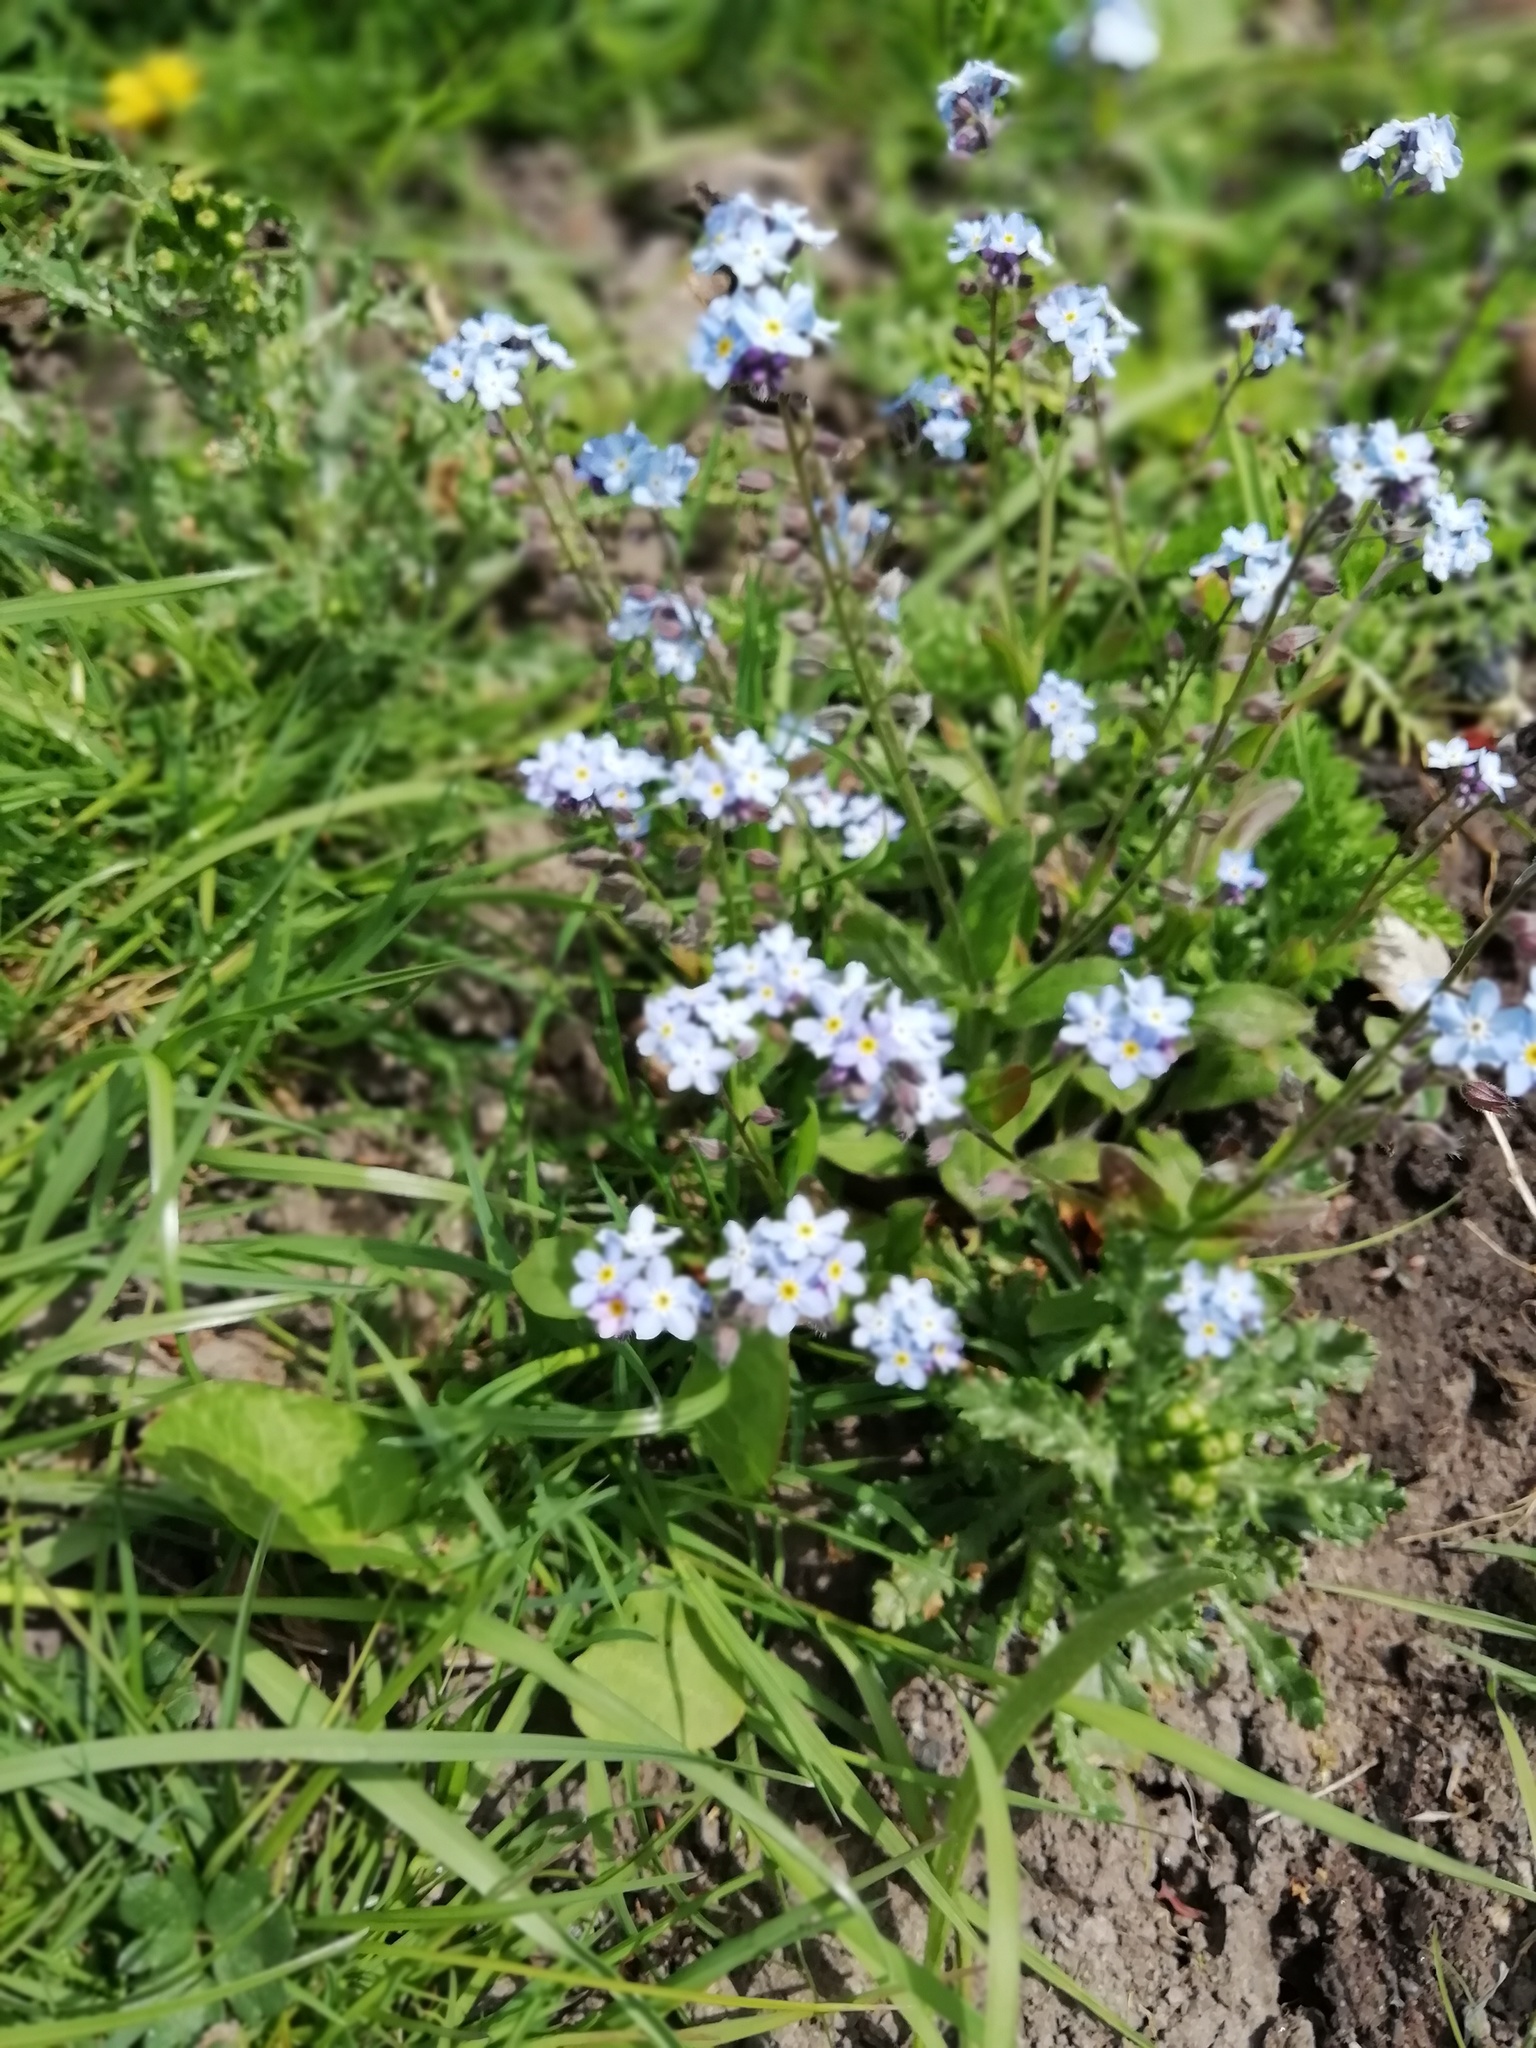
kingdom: Plantae
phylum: Tracheophyta
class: Magnoliopsida
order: Boraginales
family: Boraginaceae
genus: Myosotis
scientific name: Myosotis sylvatica
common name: Wood forget-me-not
